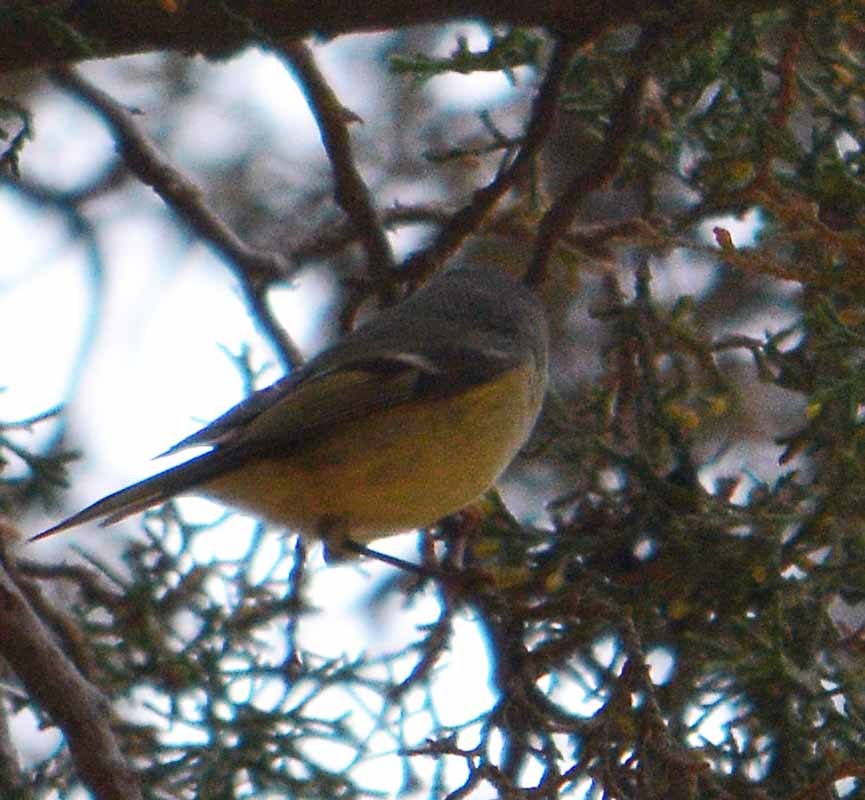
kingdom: Animalia
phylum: Chordata
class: Aves
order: Passeriformes
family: Regulidae
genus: Regulus
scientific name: Regulus calendula
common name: Ruby-crowned kinglet
